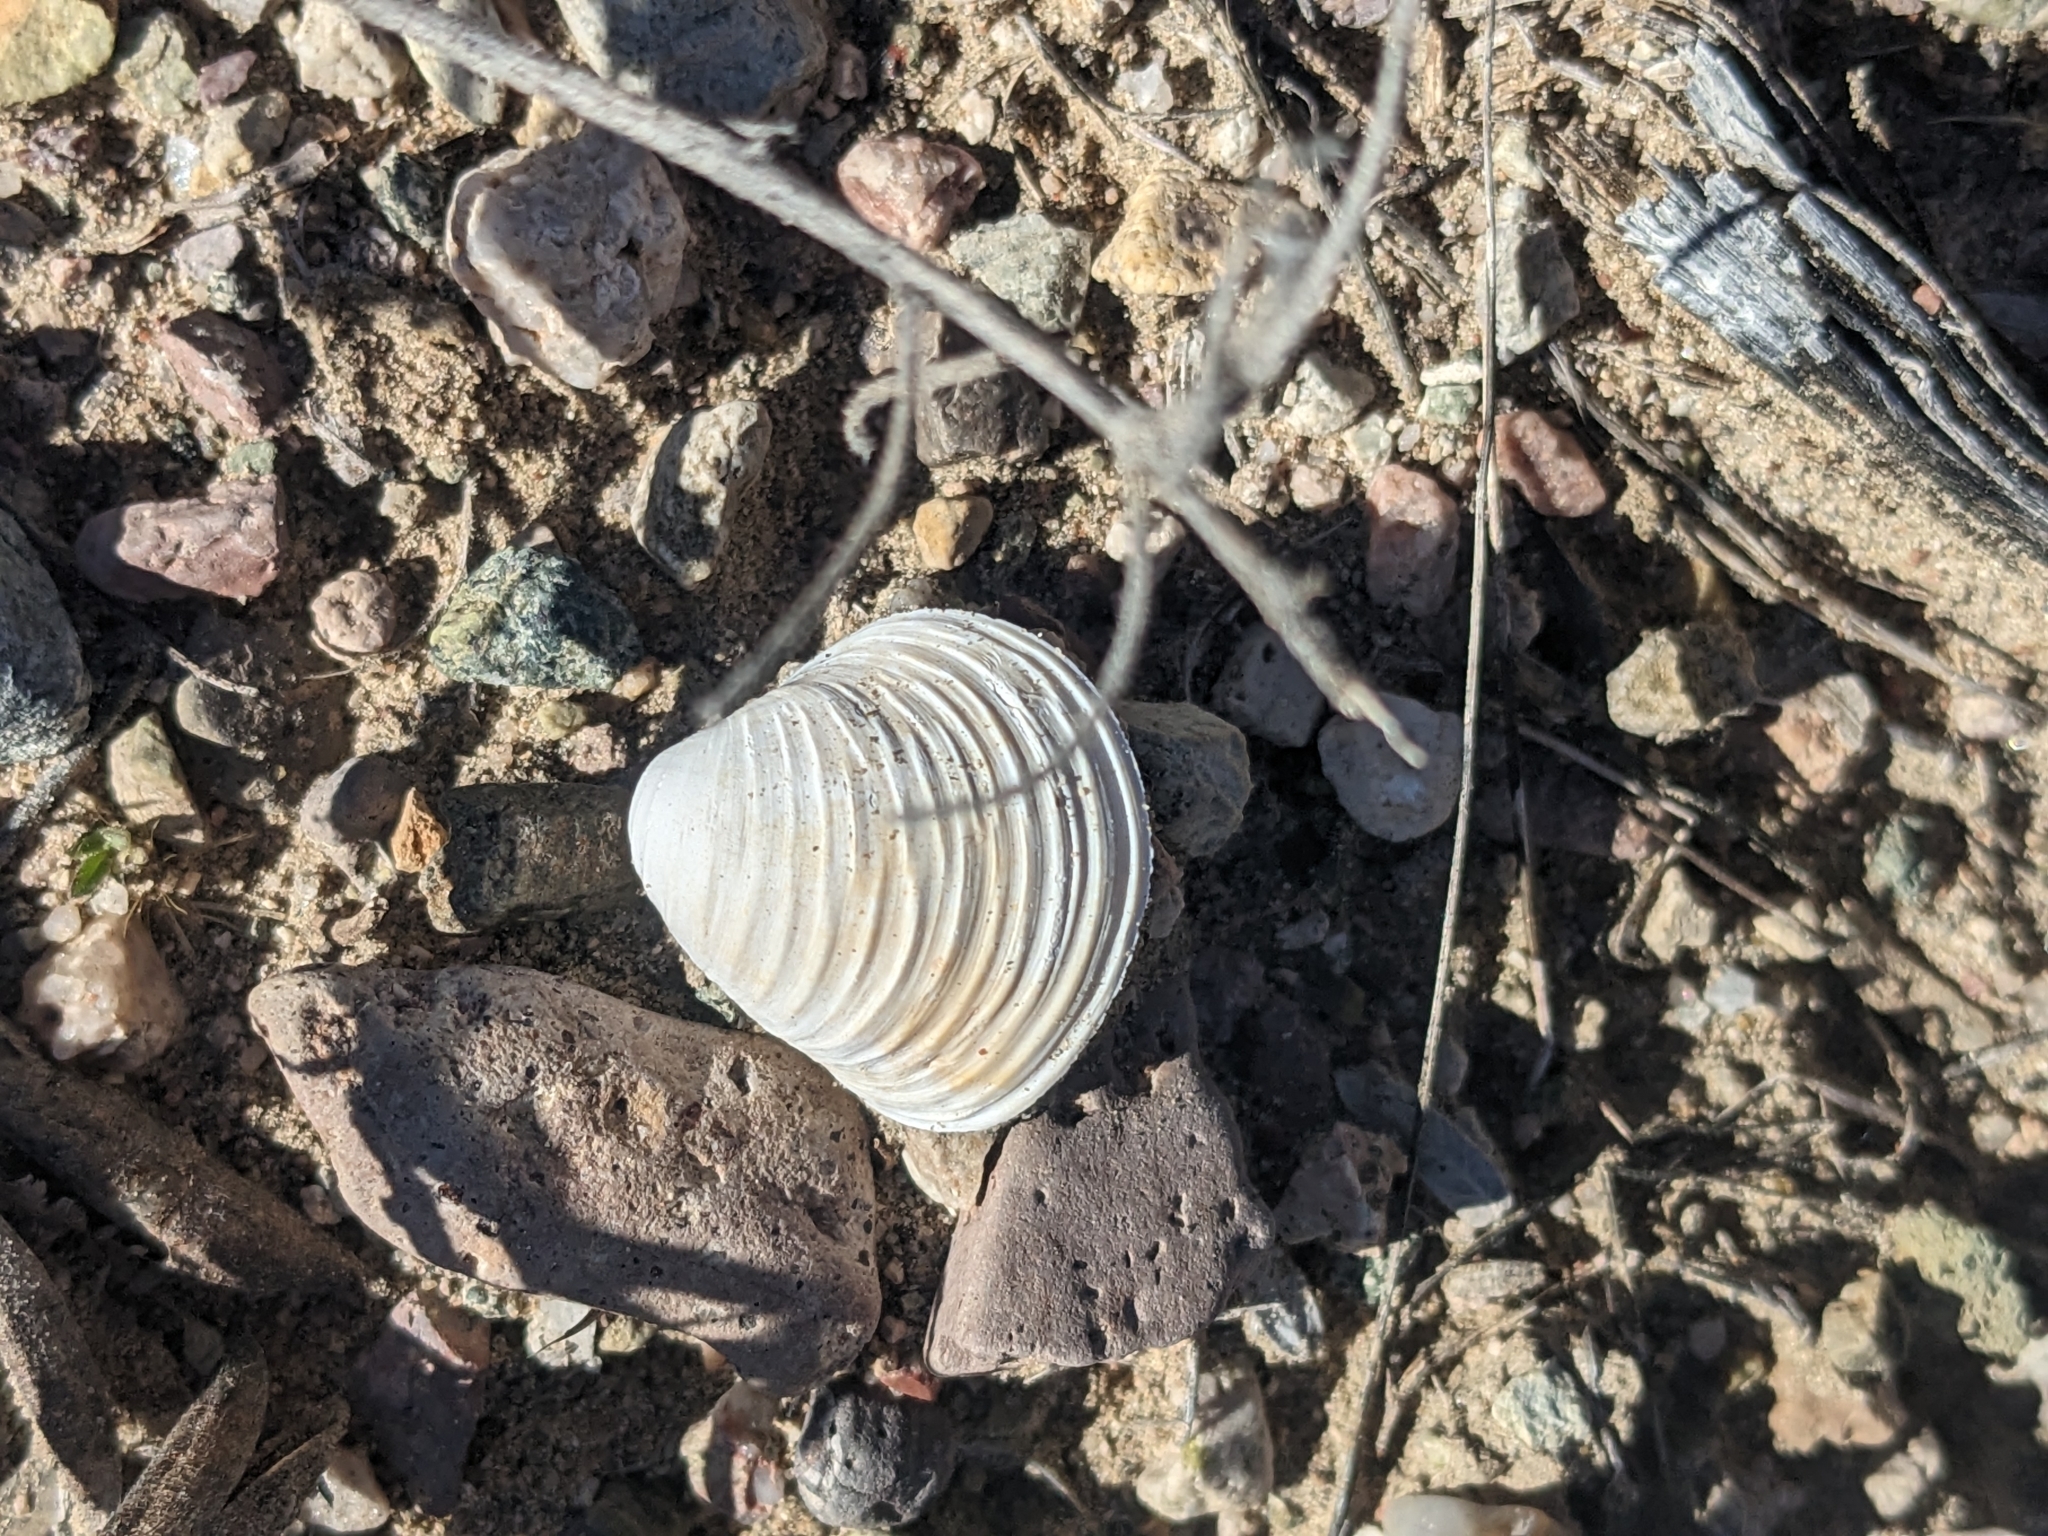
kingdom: Animalia
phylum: Mollusca
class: Bivalvia
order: Venerida
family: Cyrenidae
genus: Corbicula
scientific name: Corbicula fluminea
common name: Asian clam
